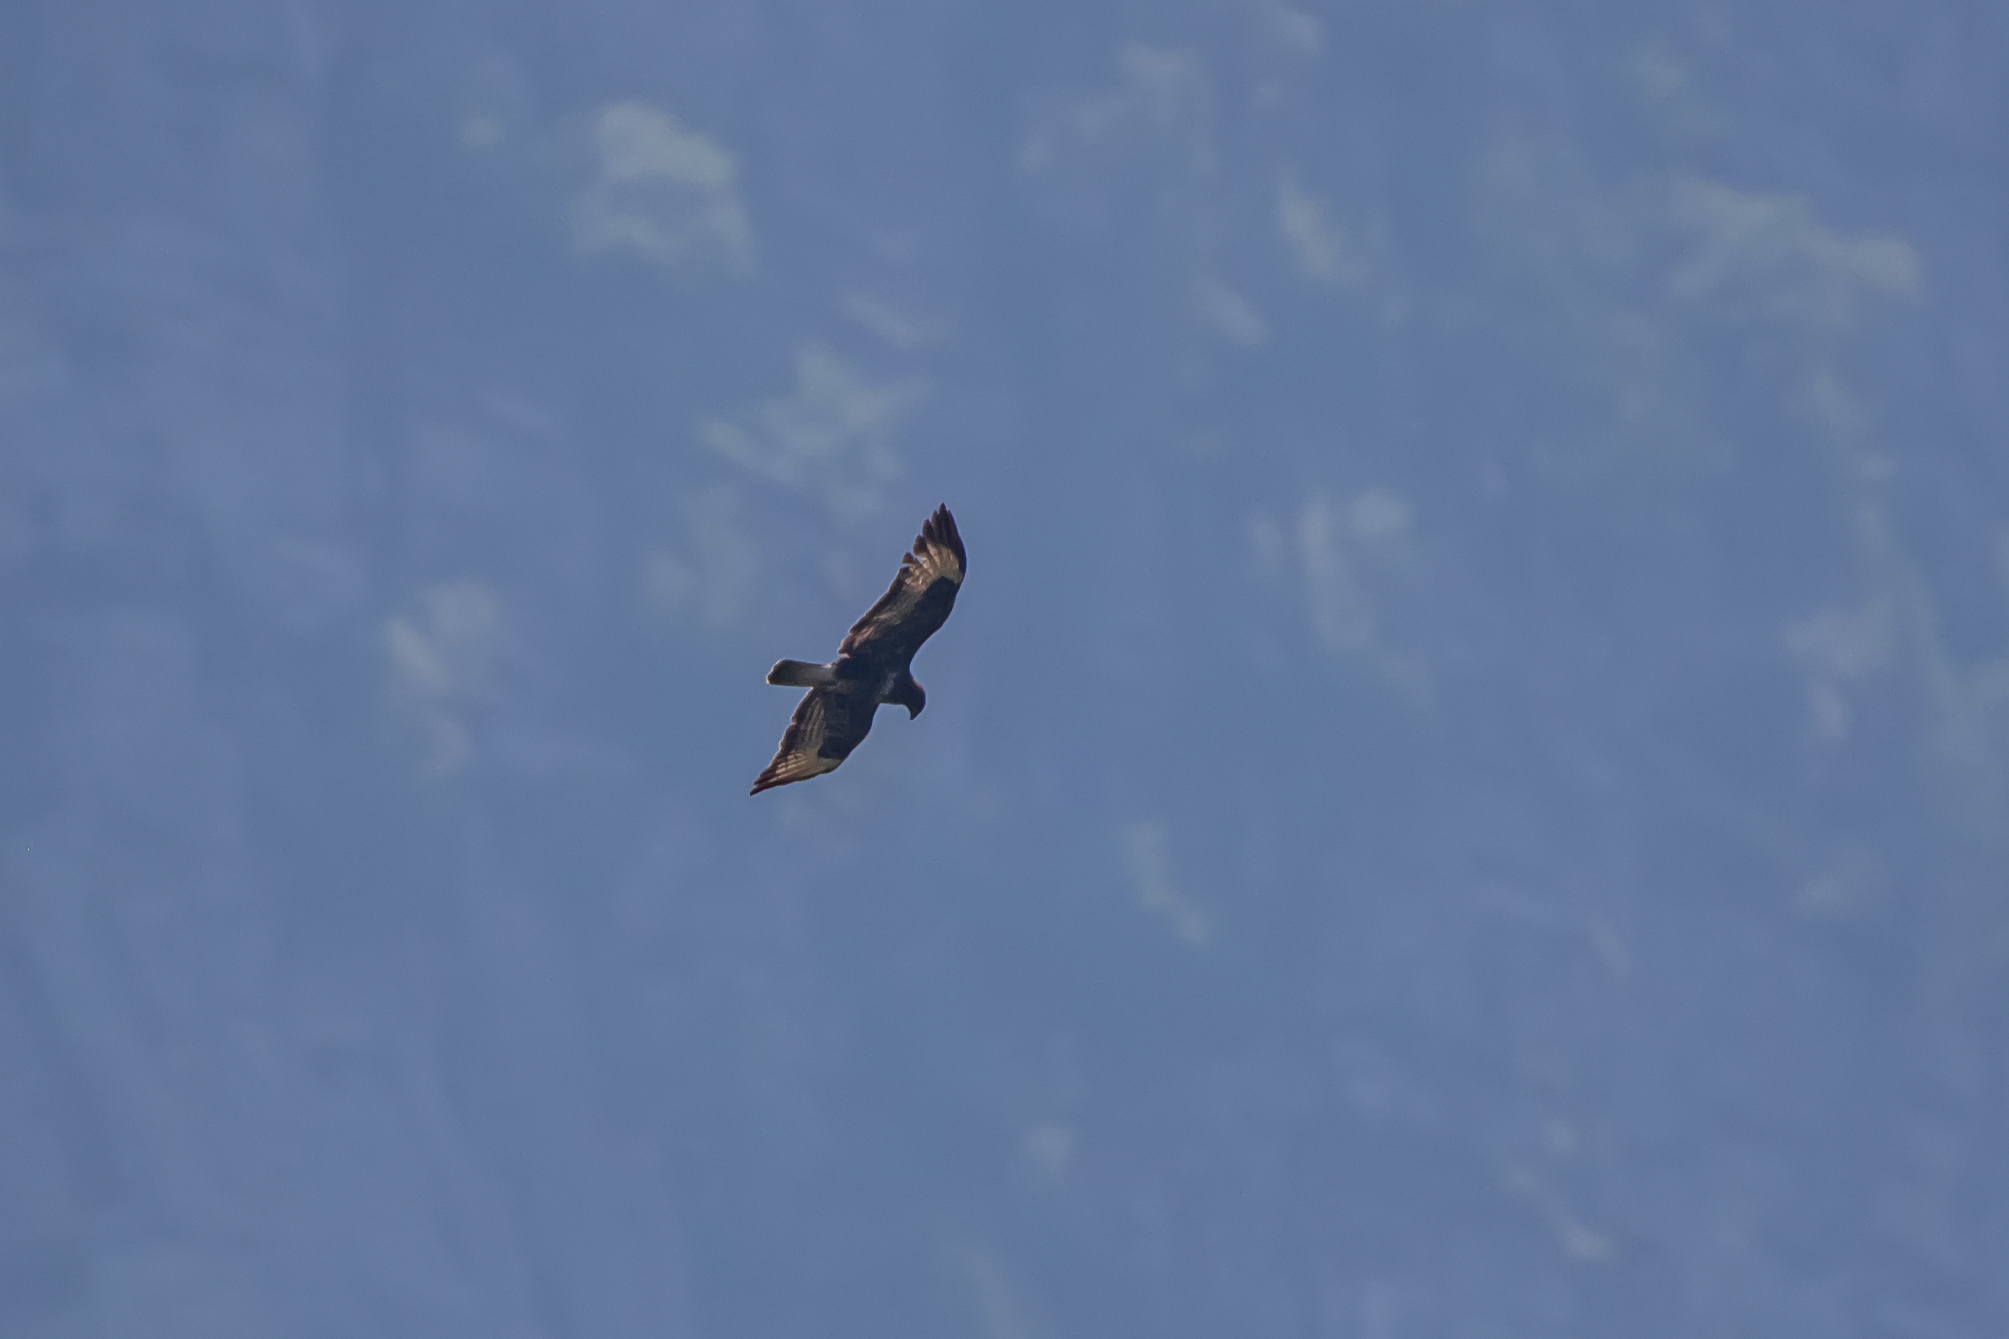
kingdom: Animalia
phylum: Chordata
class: Aves
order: Accipitriformes
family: Accipitridae
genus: Buteo
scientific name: Buteo buteo
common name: Common buzzard
